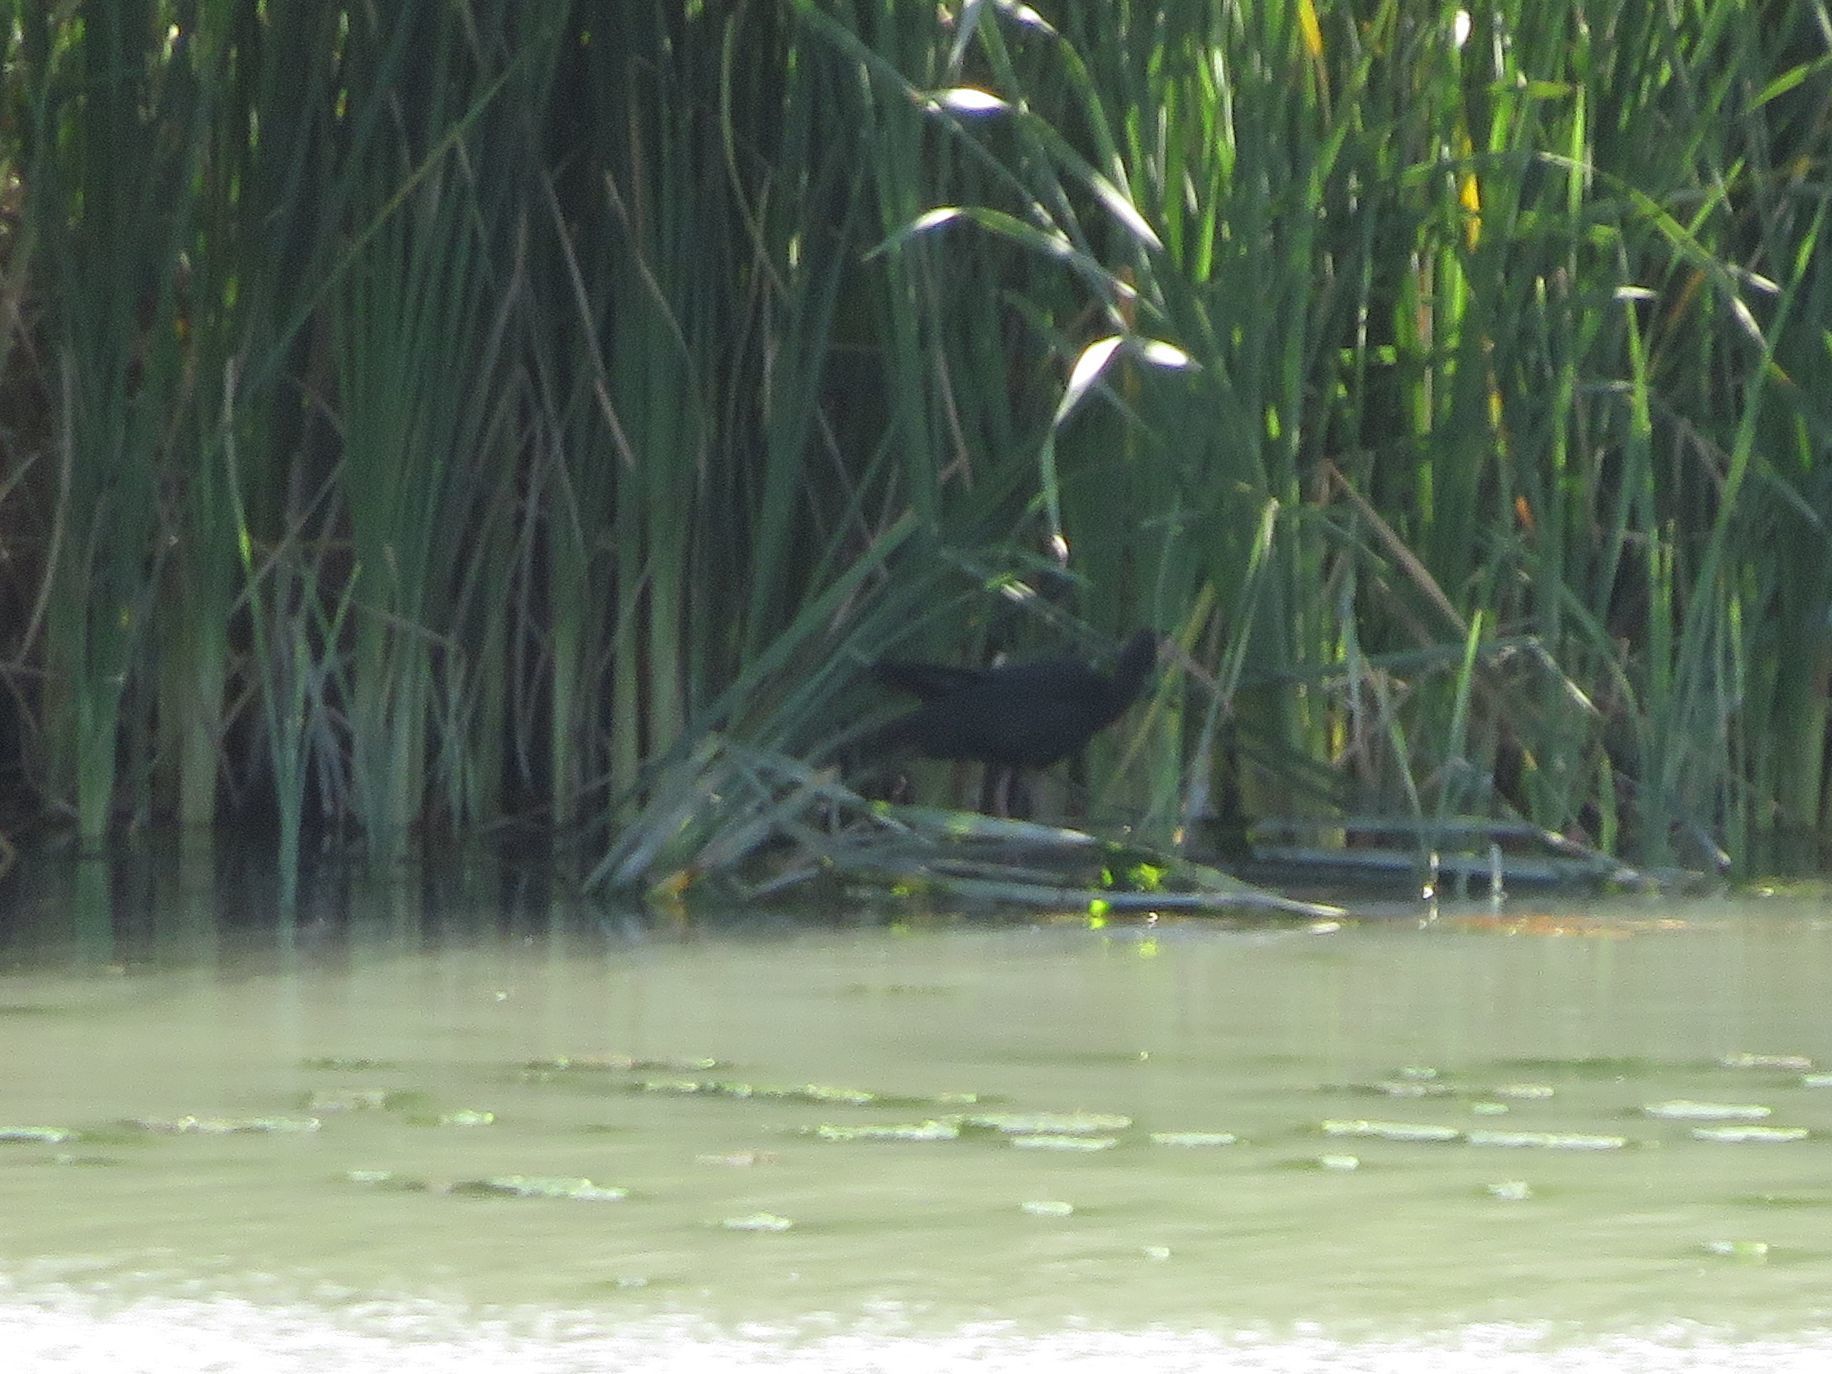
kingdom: Animalia
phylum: Chordata
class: Aves
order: Pelecaniformes
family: Threskiornithidae
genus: Phimosus
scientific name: Phimosus infuscatus
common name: Bare-faced ibis
